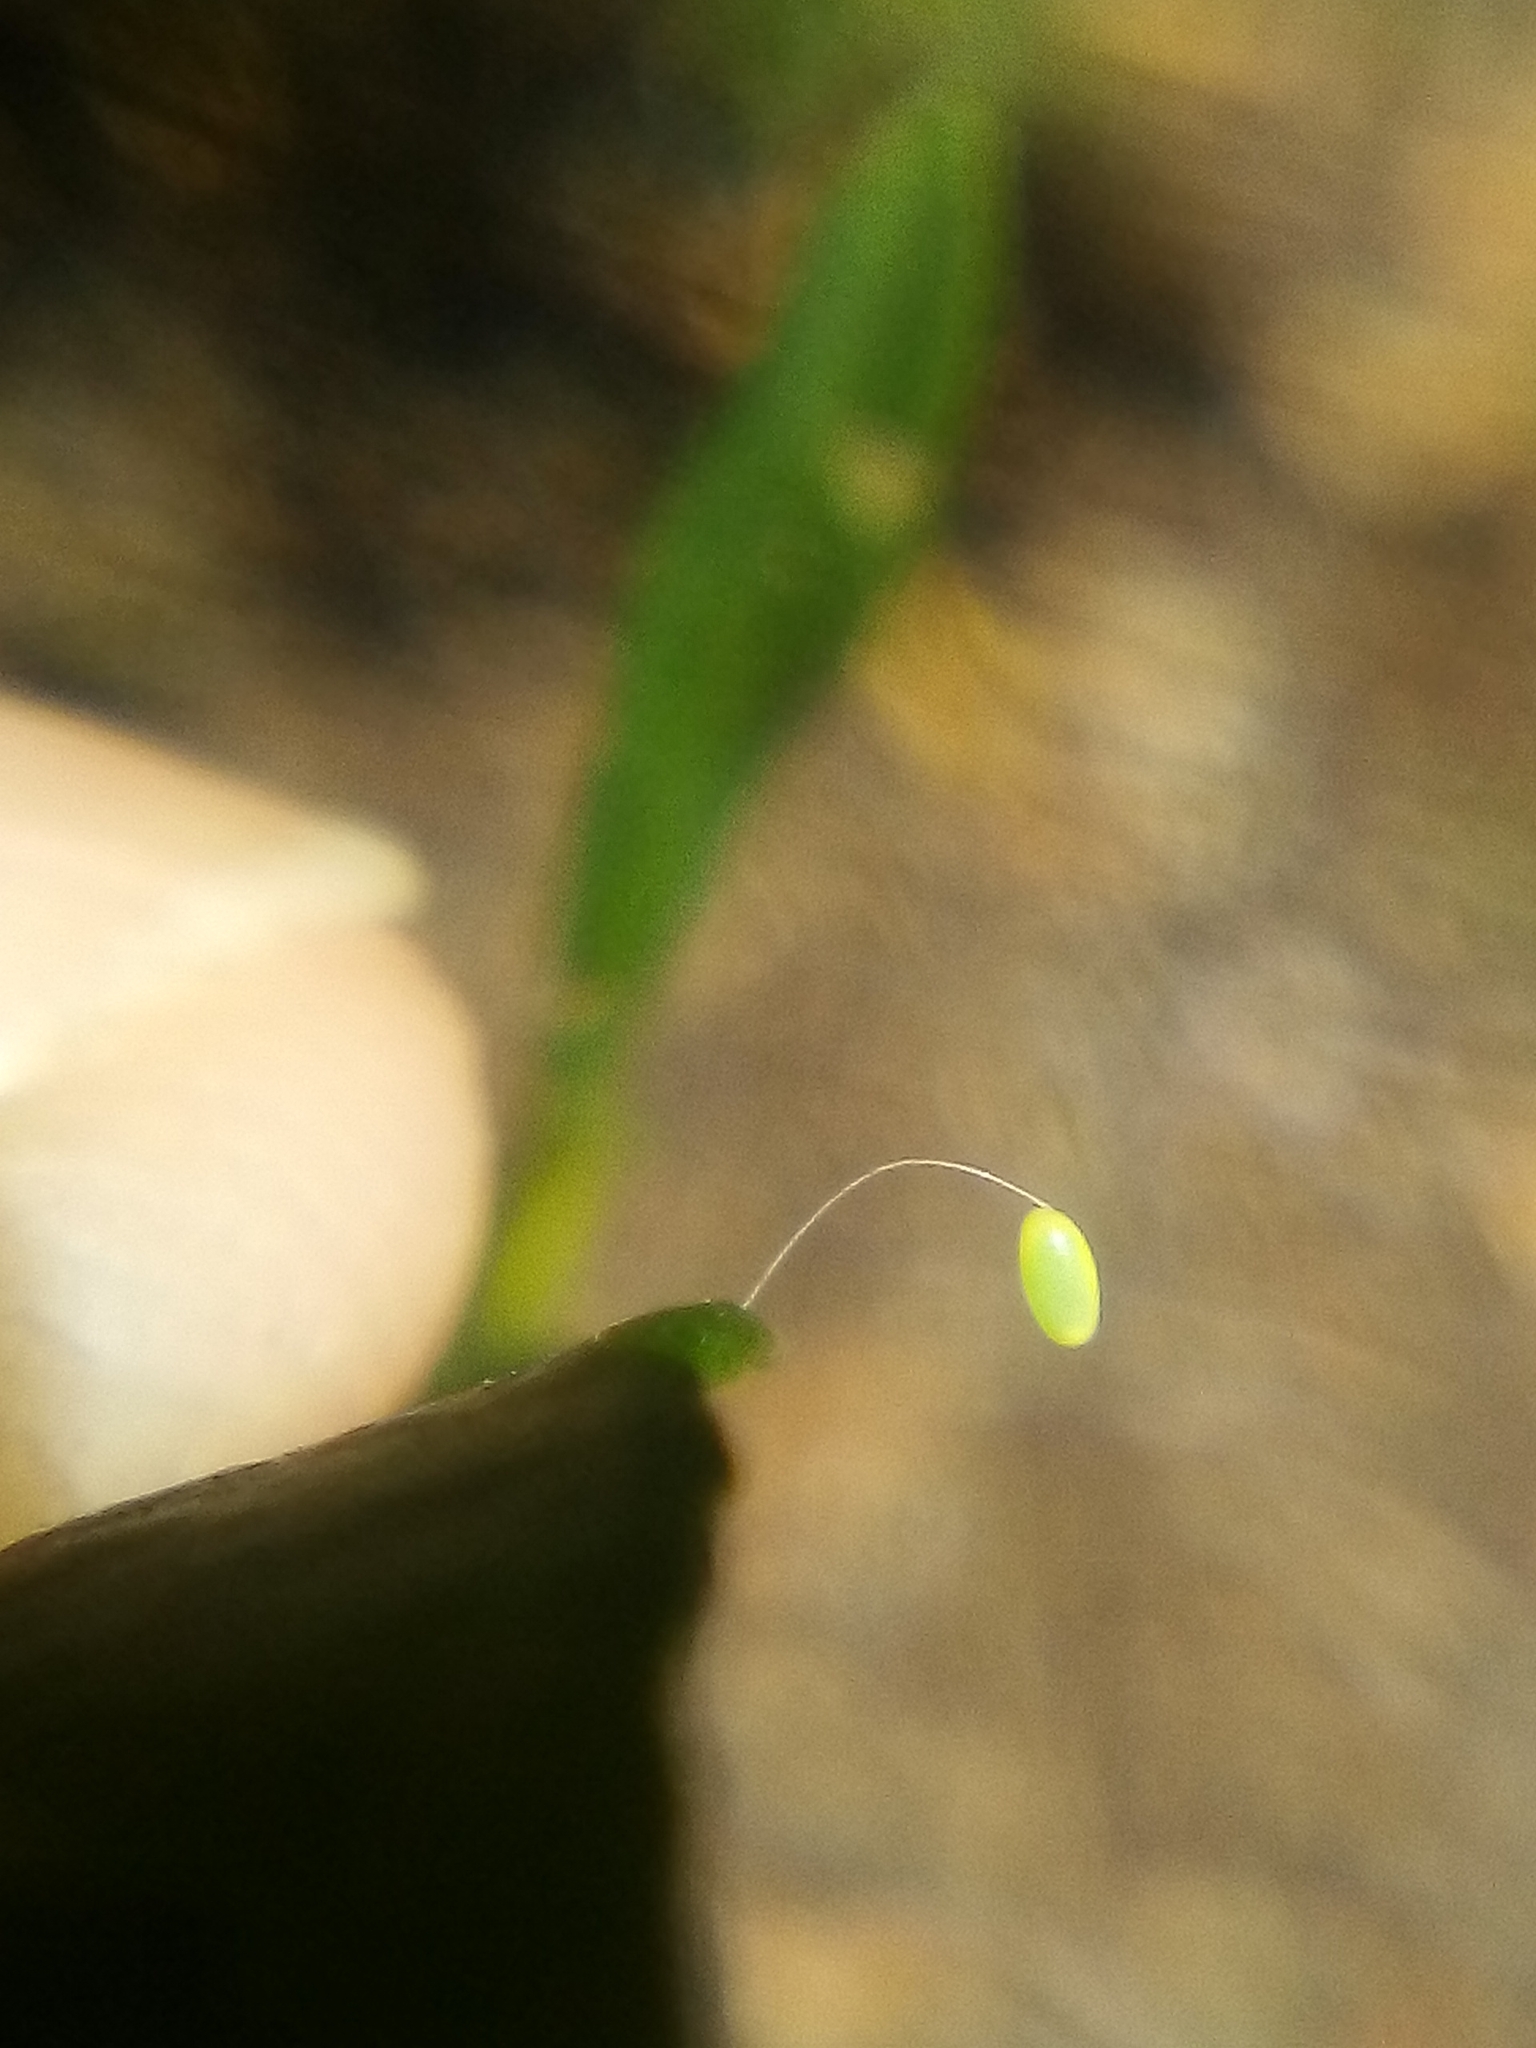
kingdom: Animalia
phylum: Arthropoda
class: Insecta
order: Neuroptera
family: Chrysopidae
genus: Mallada
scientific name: Mallada basalis
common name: Green lacewing
